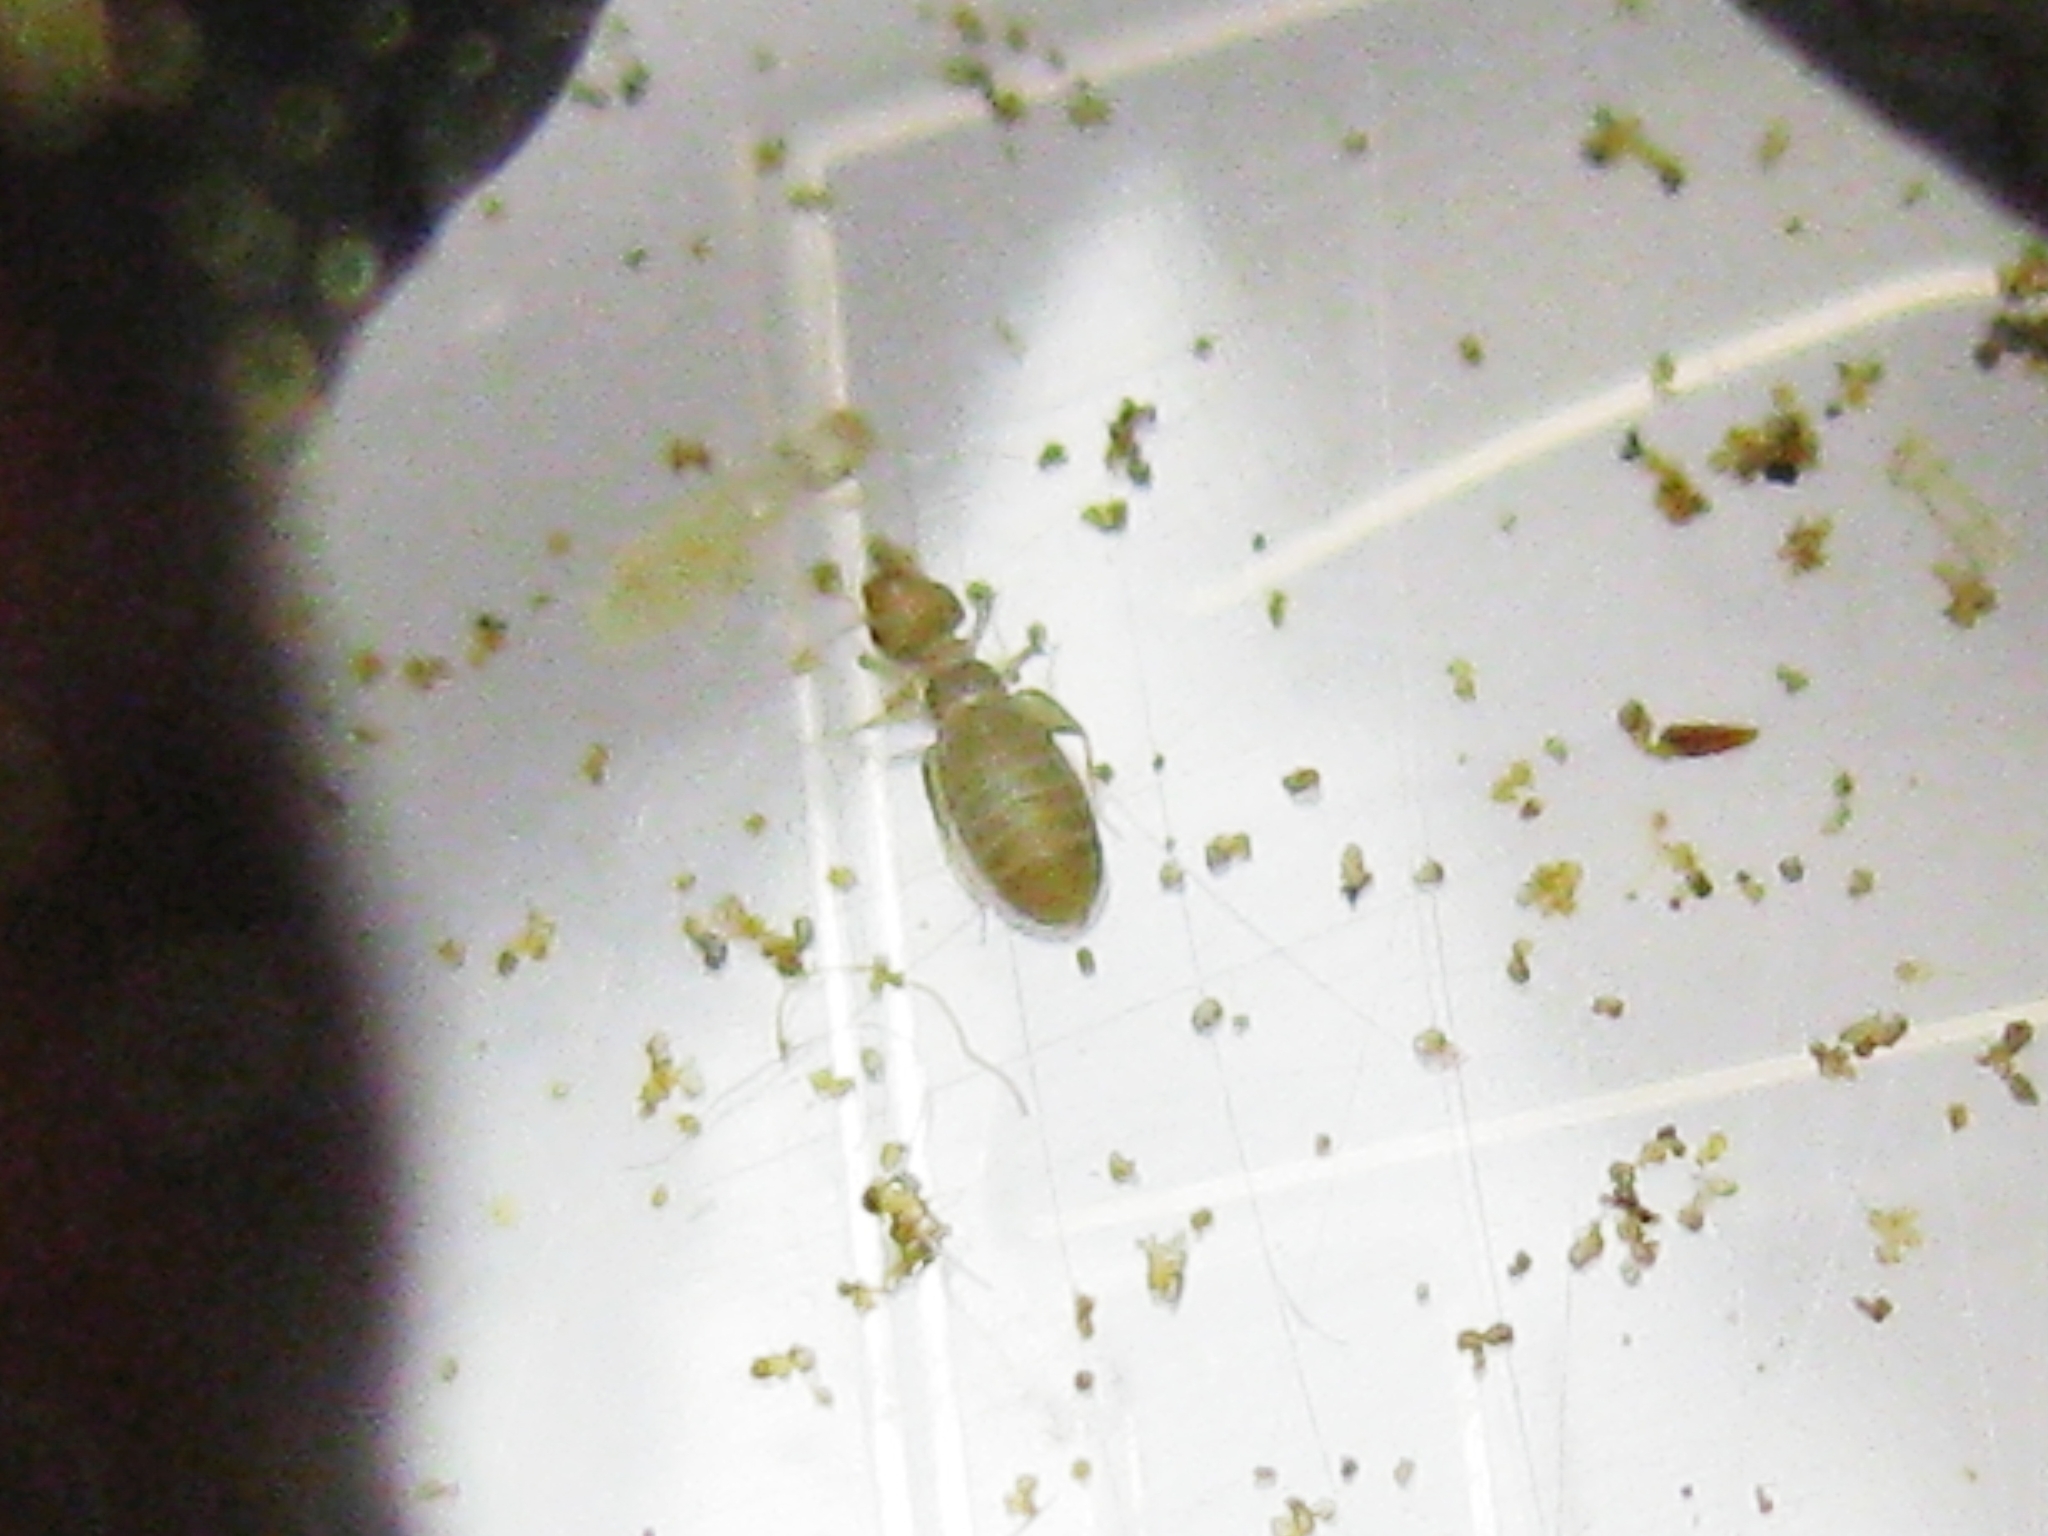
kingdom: Animalia
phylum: Arthropoda
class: Insecta
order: Psocodea
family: Liposcelididae
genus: Liposcelis
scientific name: Liposcelis
